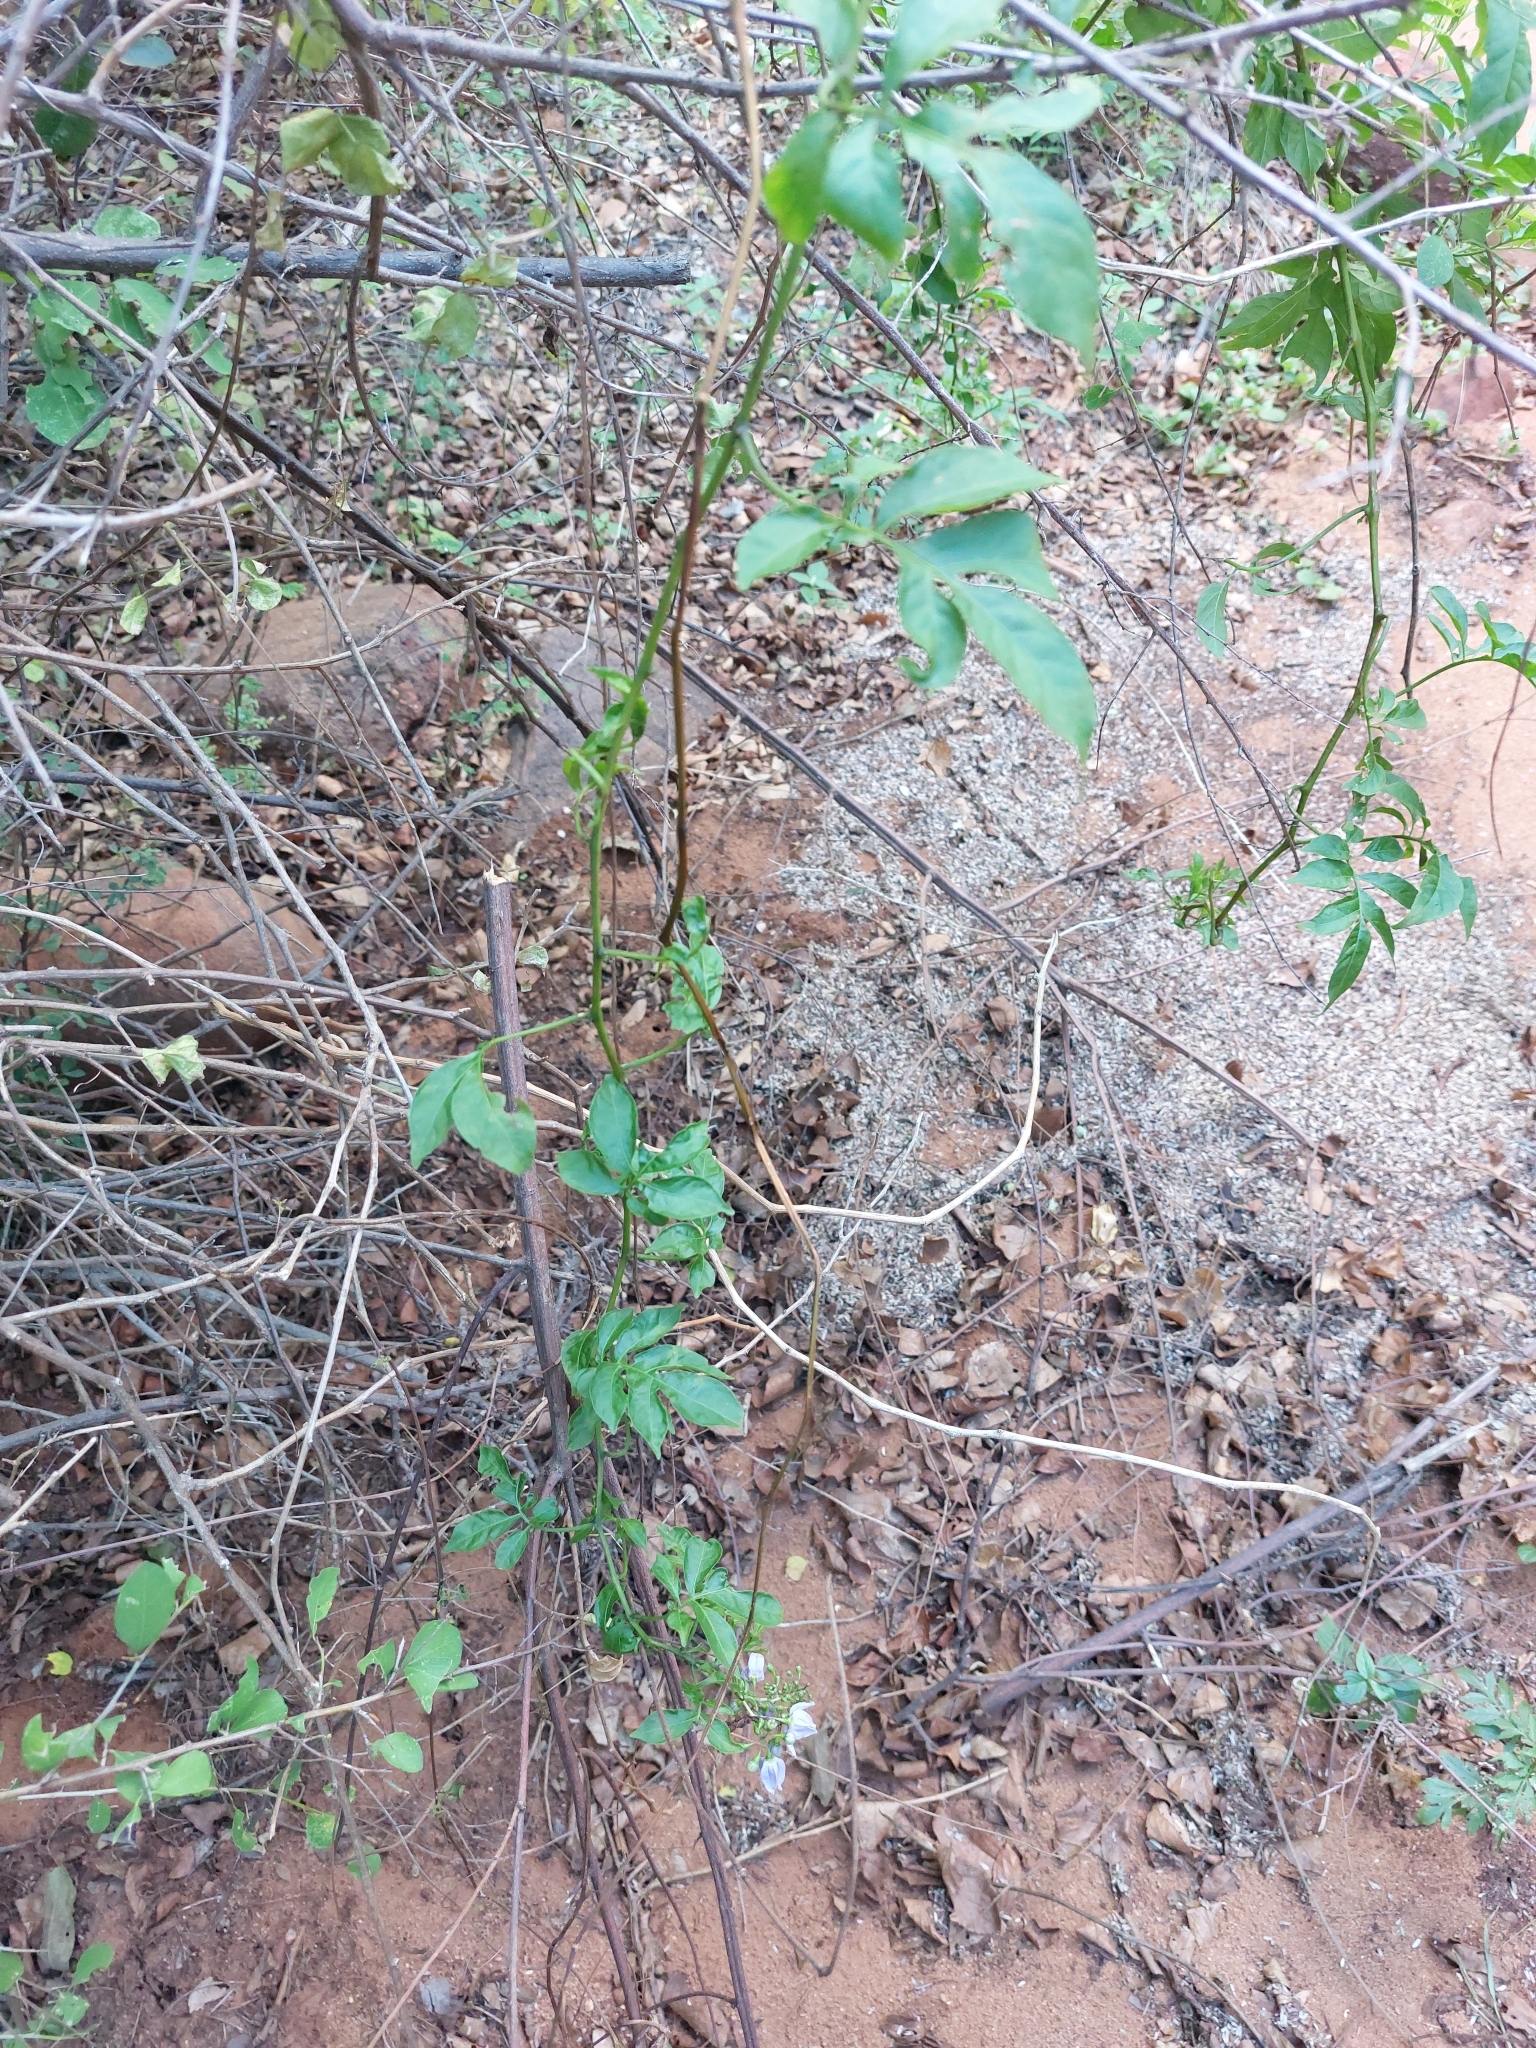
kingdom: Plantae
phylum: Tracheophyta
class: Magnoliopsida
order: Solanales
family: Solanaceae
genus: Solanum
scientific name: Solanum seaforthianum
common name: Brazilian nightshade
